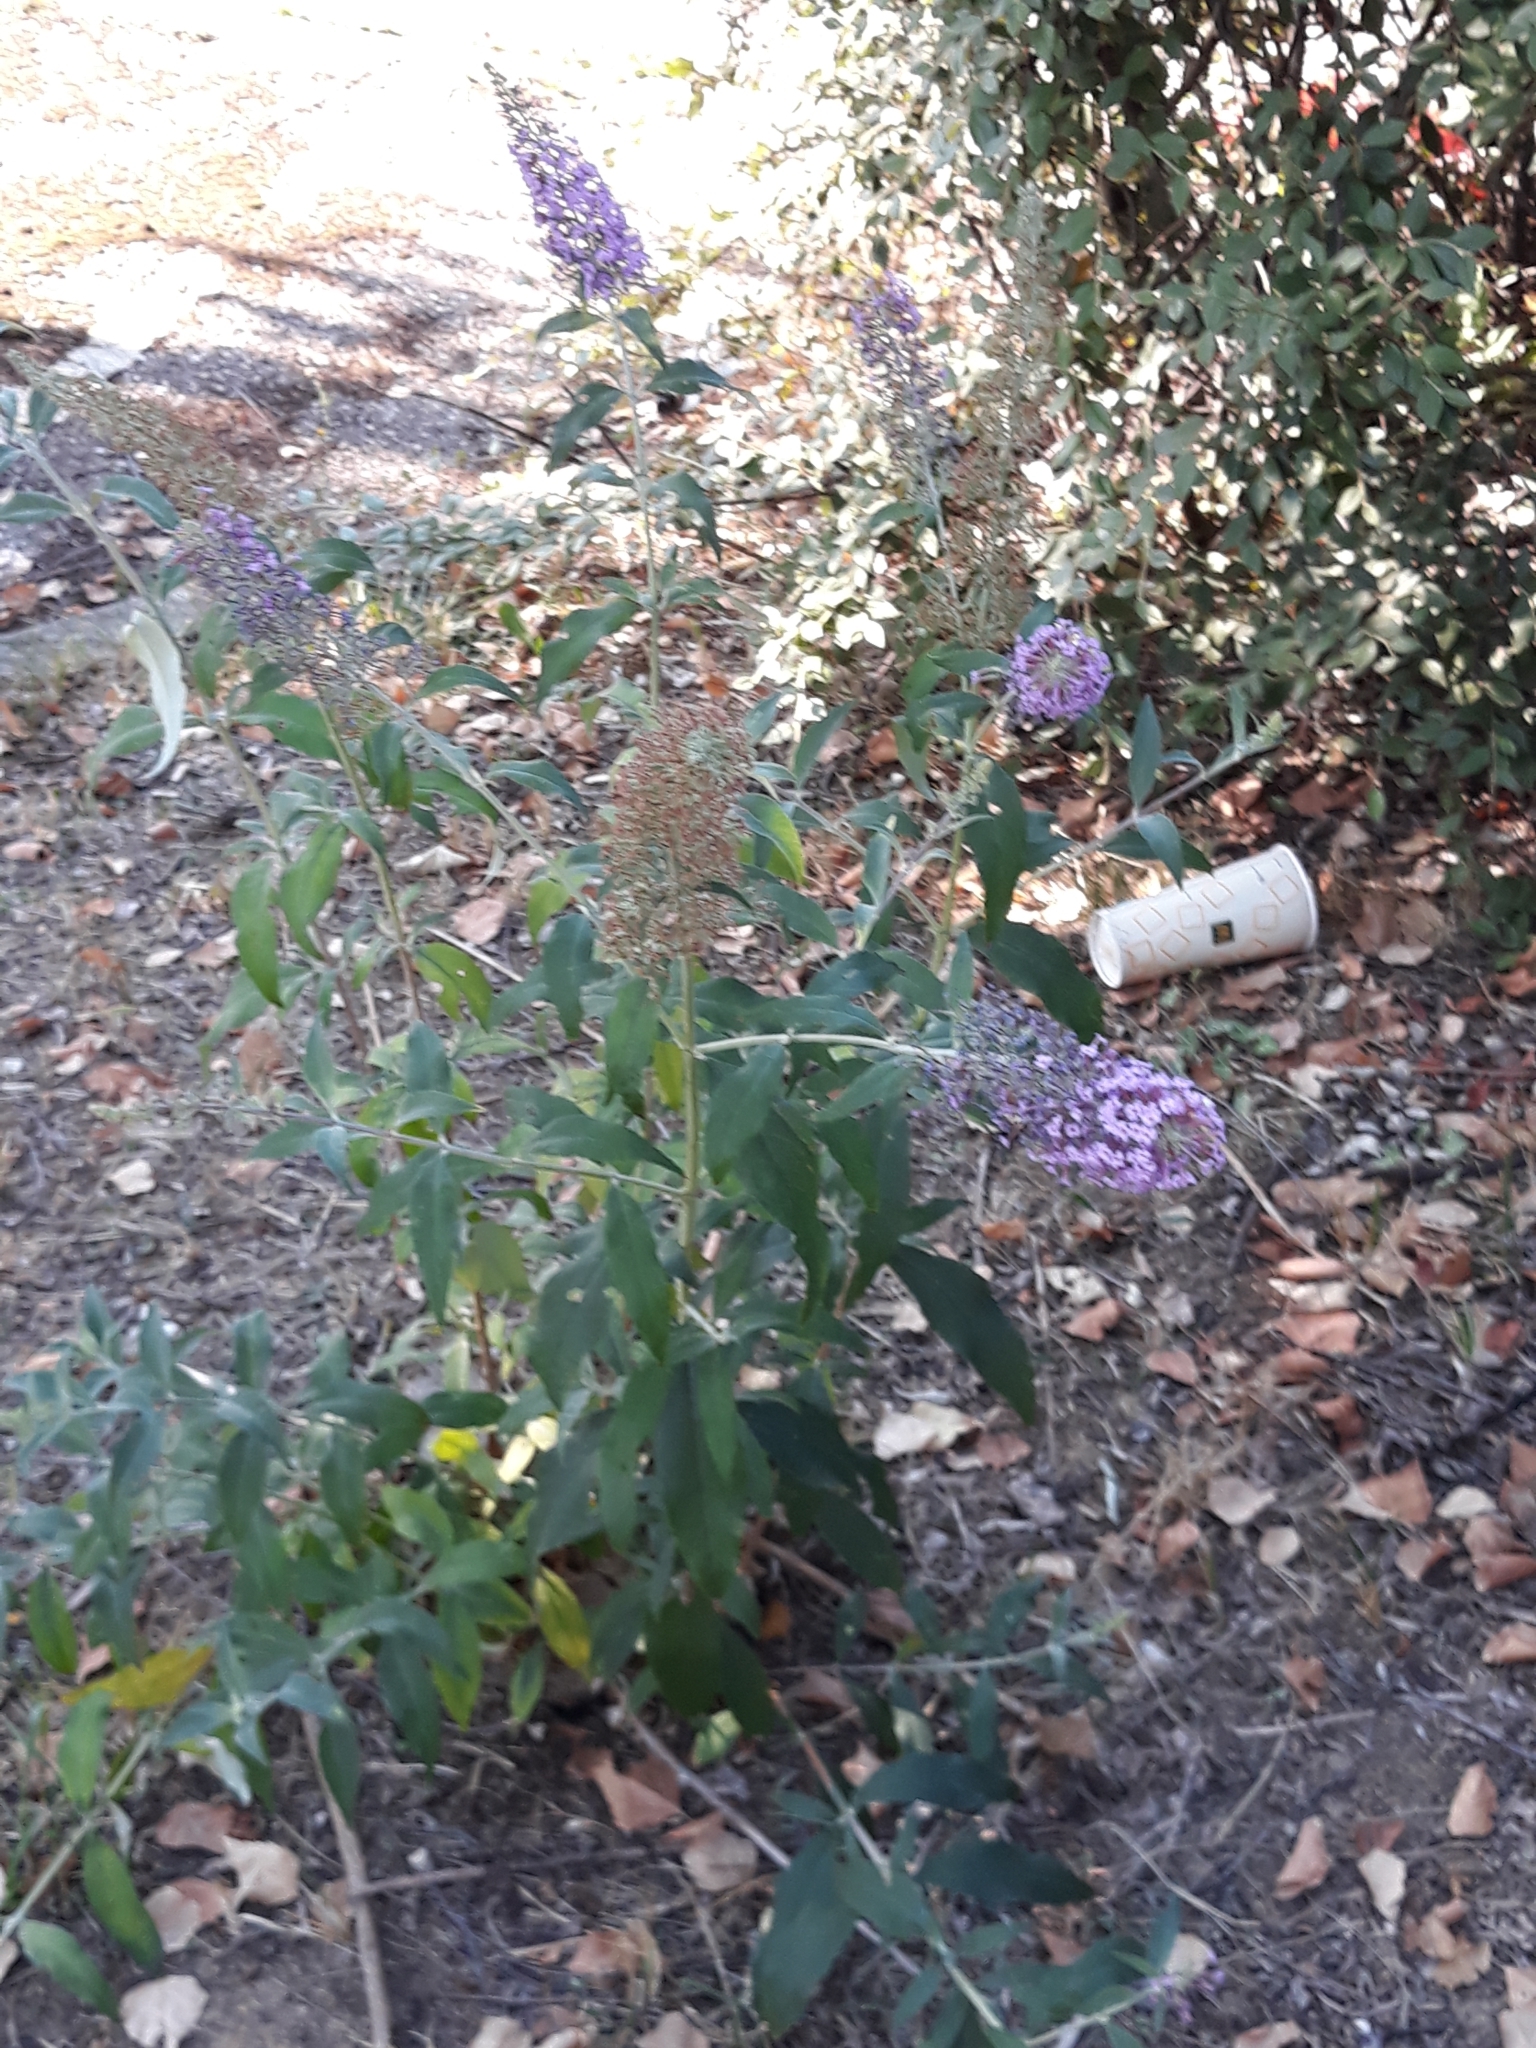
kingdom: Plantae
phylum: Tracheophyta
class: Magnoliopsida
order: Lamiales
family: Scrophulariaceae
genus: Buddleja
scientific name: Buddleja davidii
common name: Butterfly-bush
